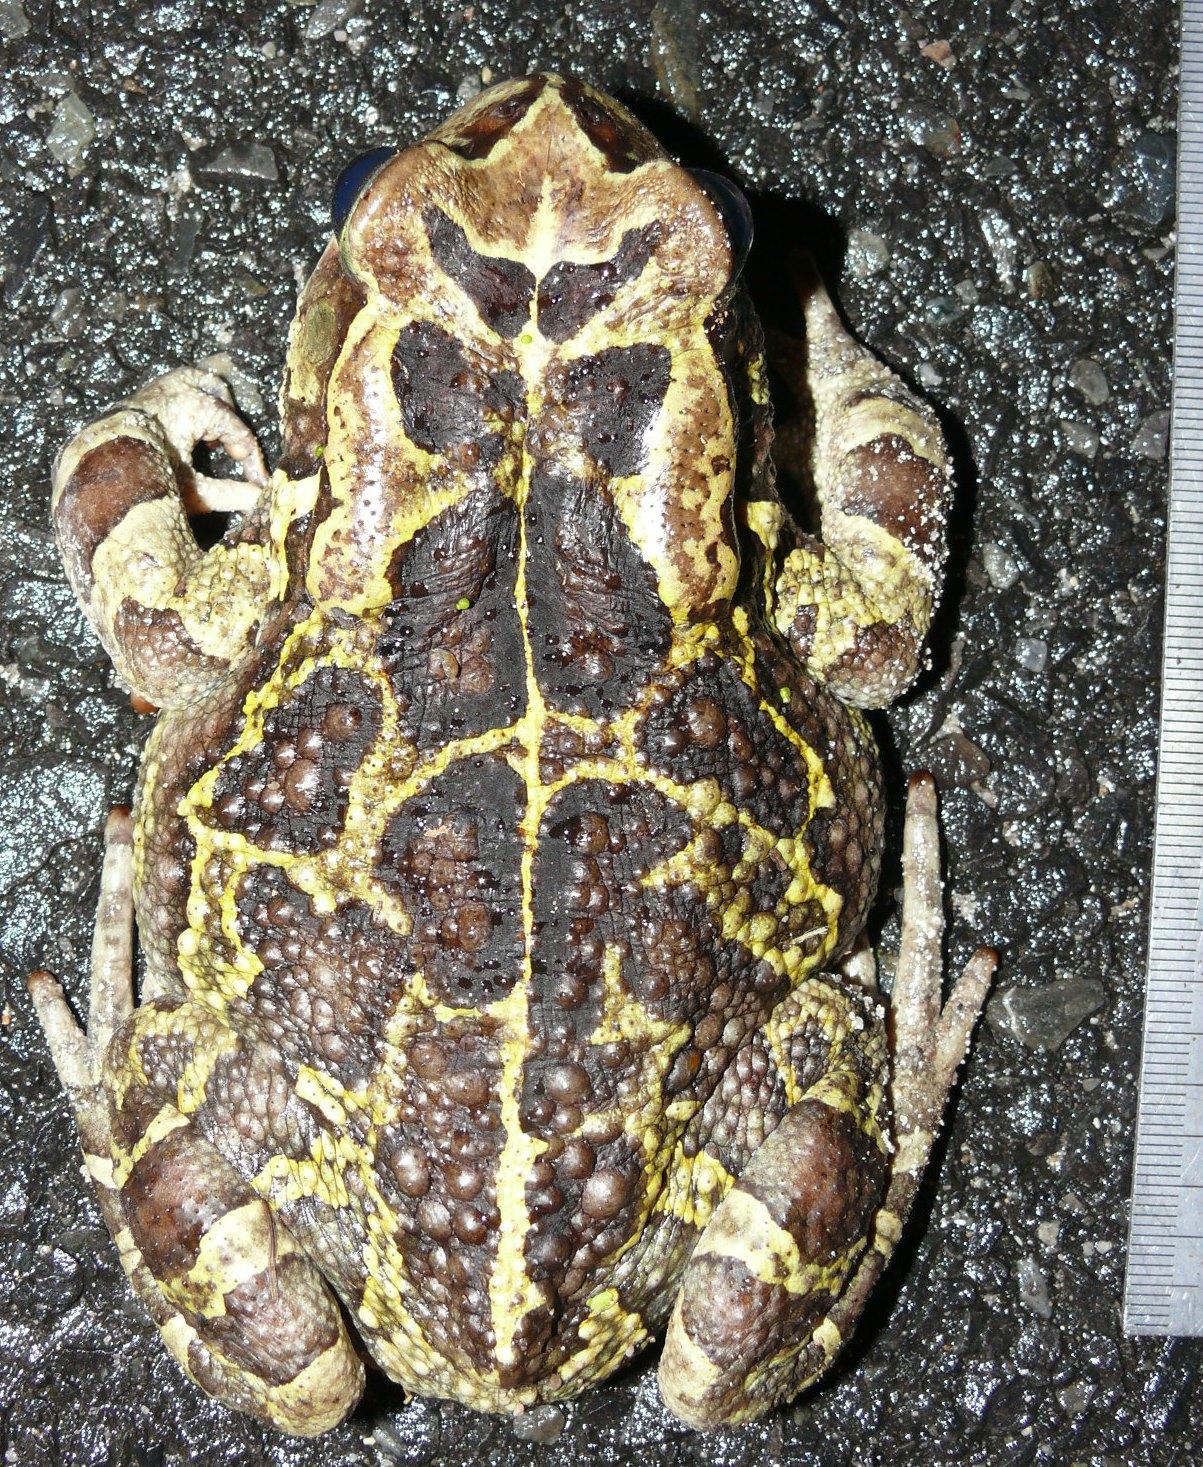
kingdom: Animalia
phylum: Chordata
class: Amphibia
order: Anura
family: Bufonidae
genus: Sclerophrys
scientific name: Sclerophrys pantherina
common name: Panther toad
